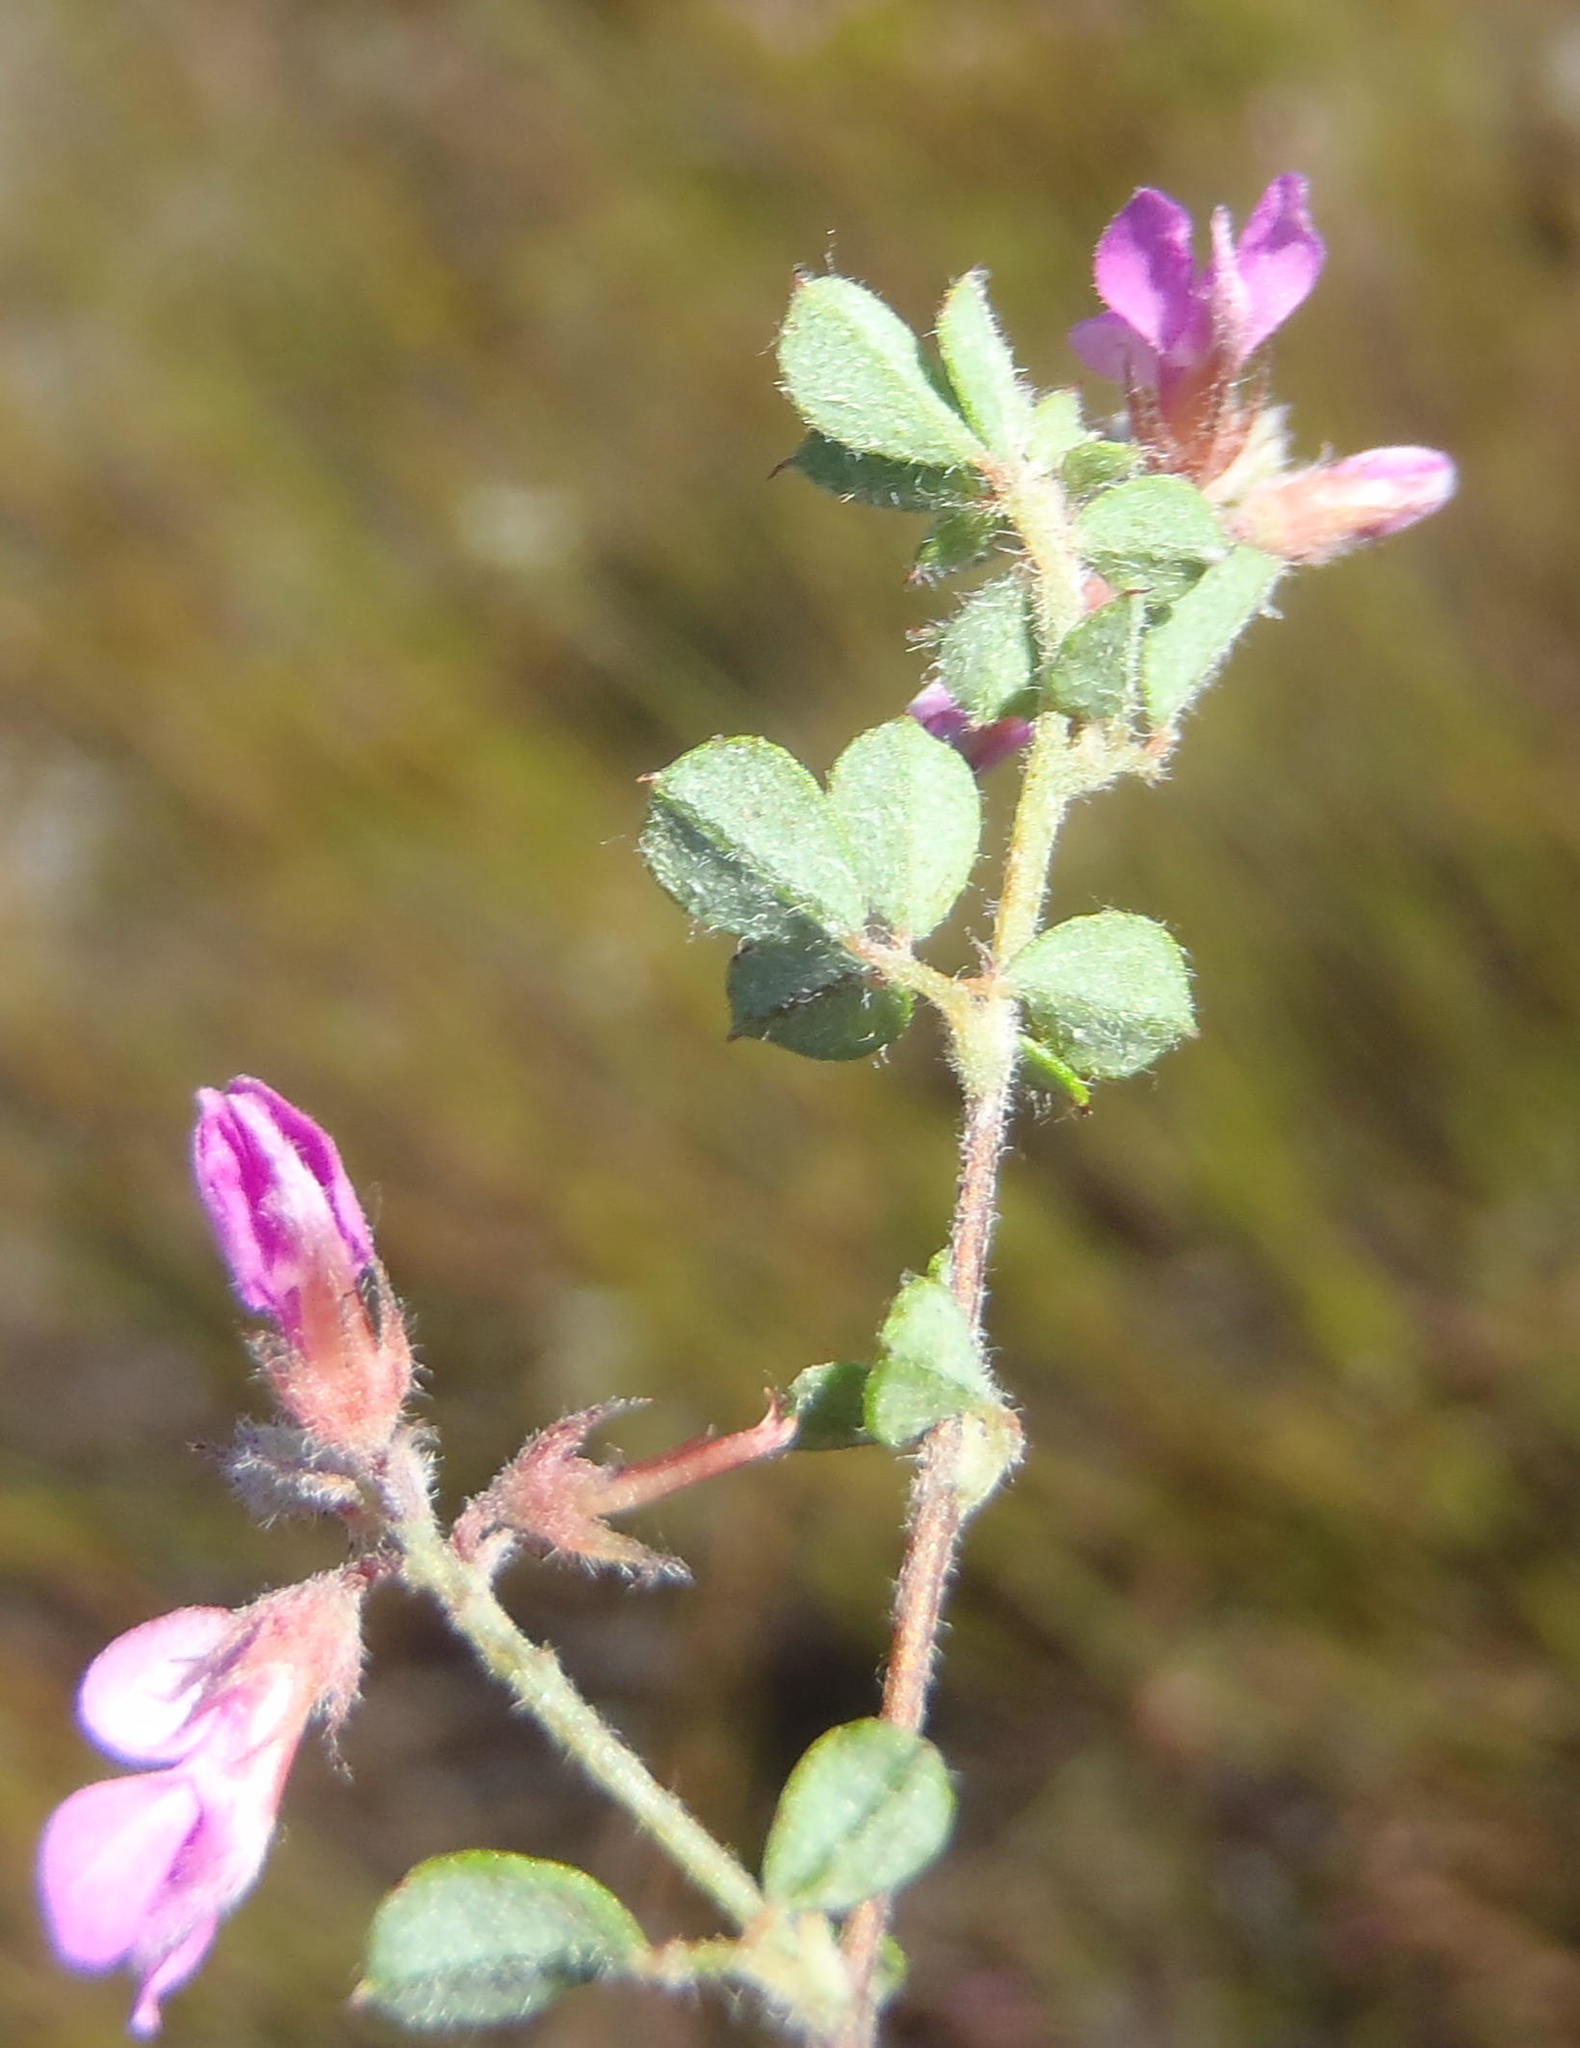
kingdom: Plantae
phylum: Tracheophyta
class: Magnoliopsida
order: Fabales
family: Fabaceae
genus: Indigofera
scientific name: Indigofera alopecuroides
